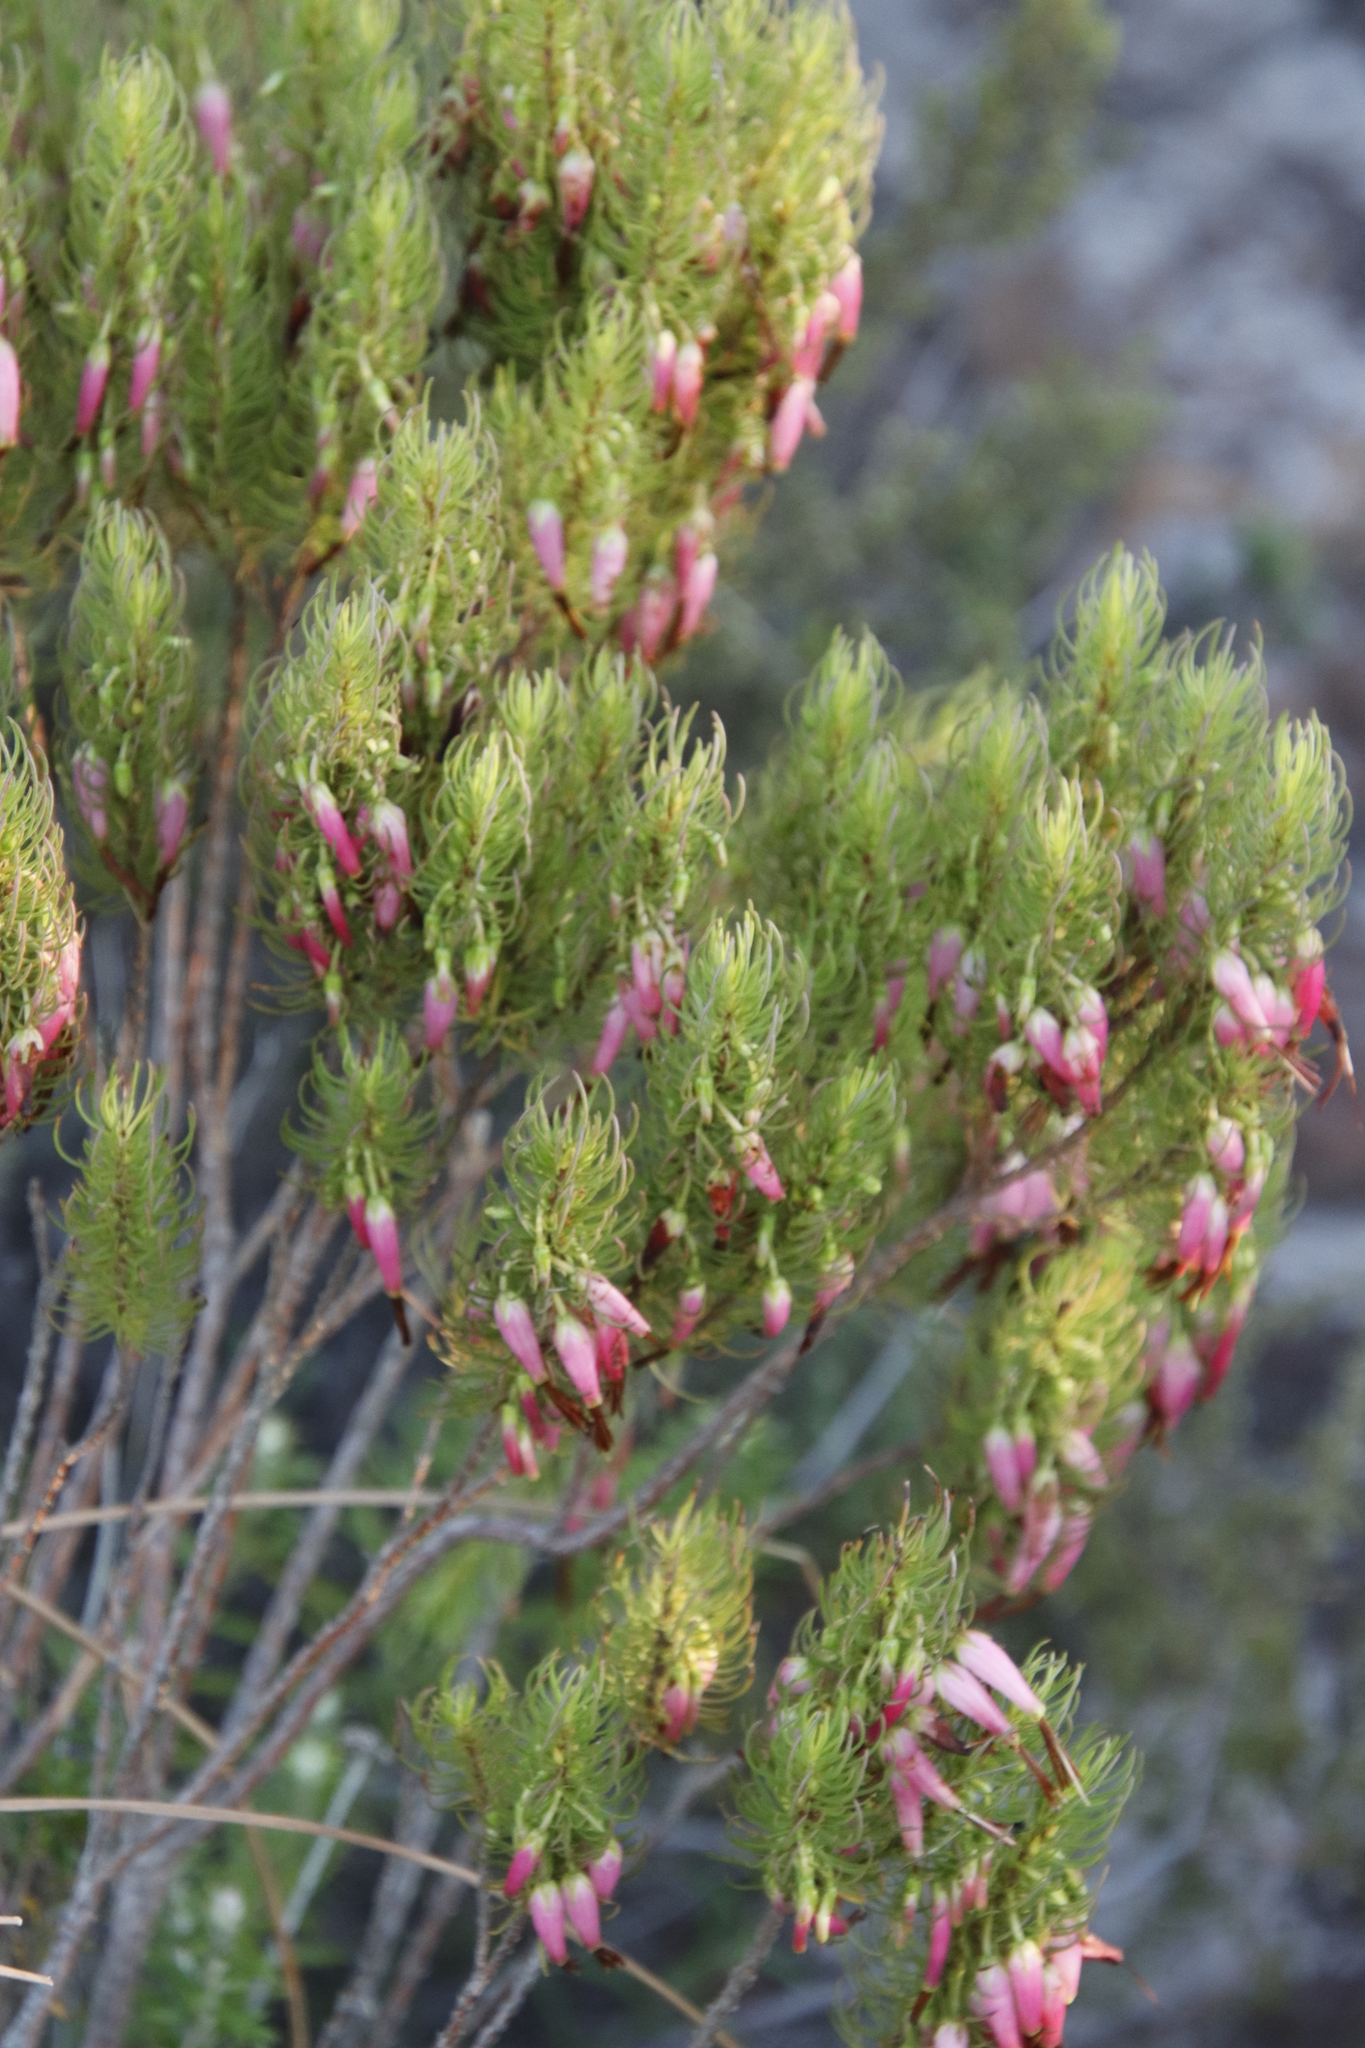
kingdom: Plantae
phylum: Tracheophyta
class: Magnoliopsida
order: Ericales
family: Ericaceae
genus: Erica
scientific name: Erica plukenetii
